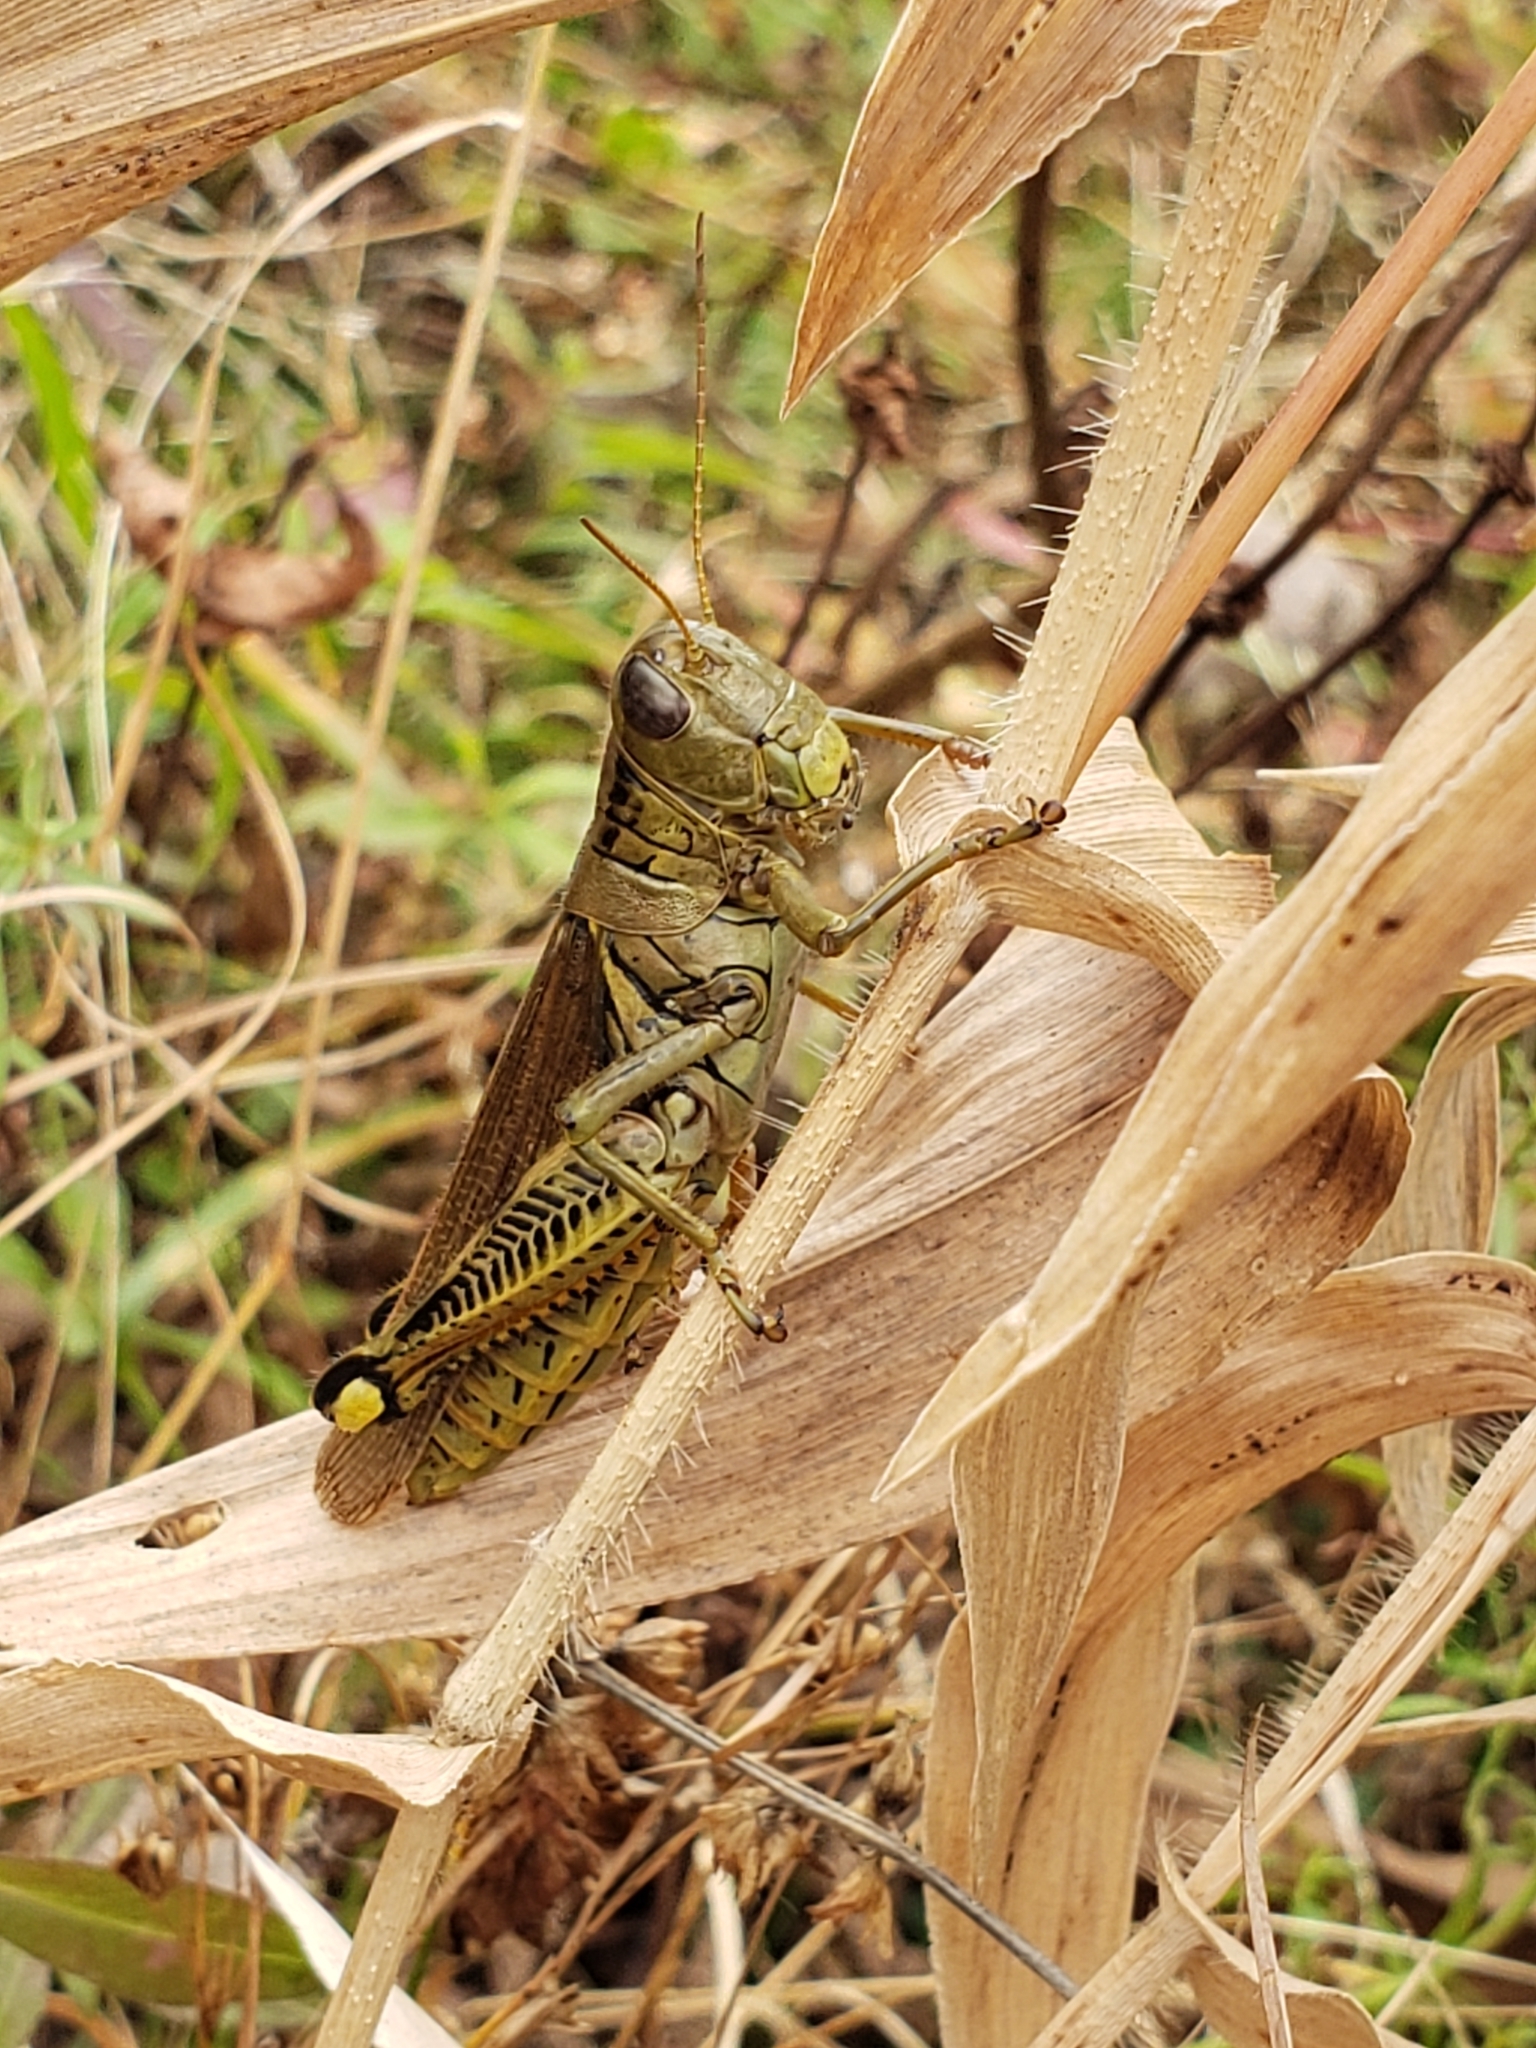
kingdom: Animalia
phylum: Arthropoda
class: Insecta
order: Orthoptera
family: Acrididae
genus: Melanoplus
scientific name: Melanoplus differentialis
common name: Differential grasshopper
